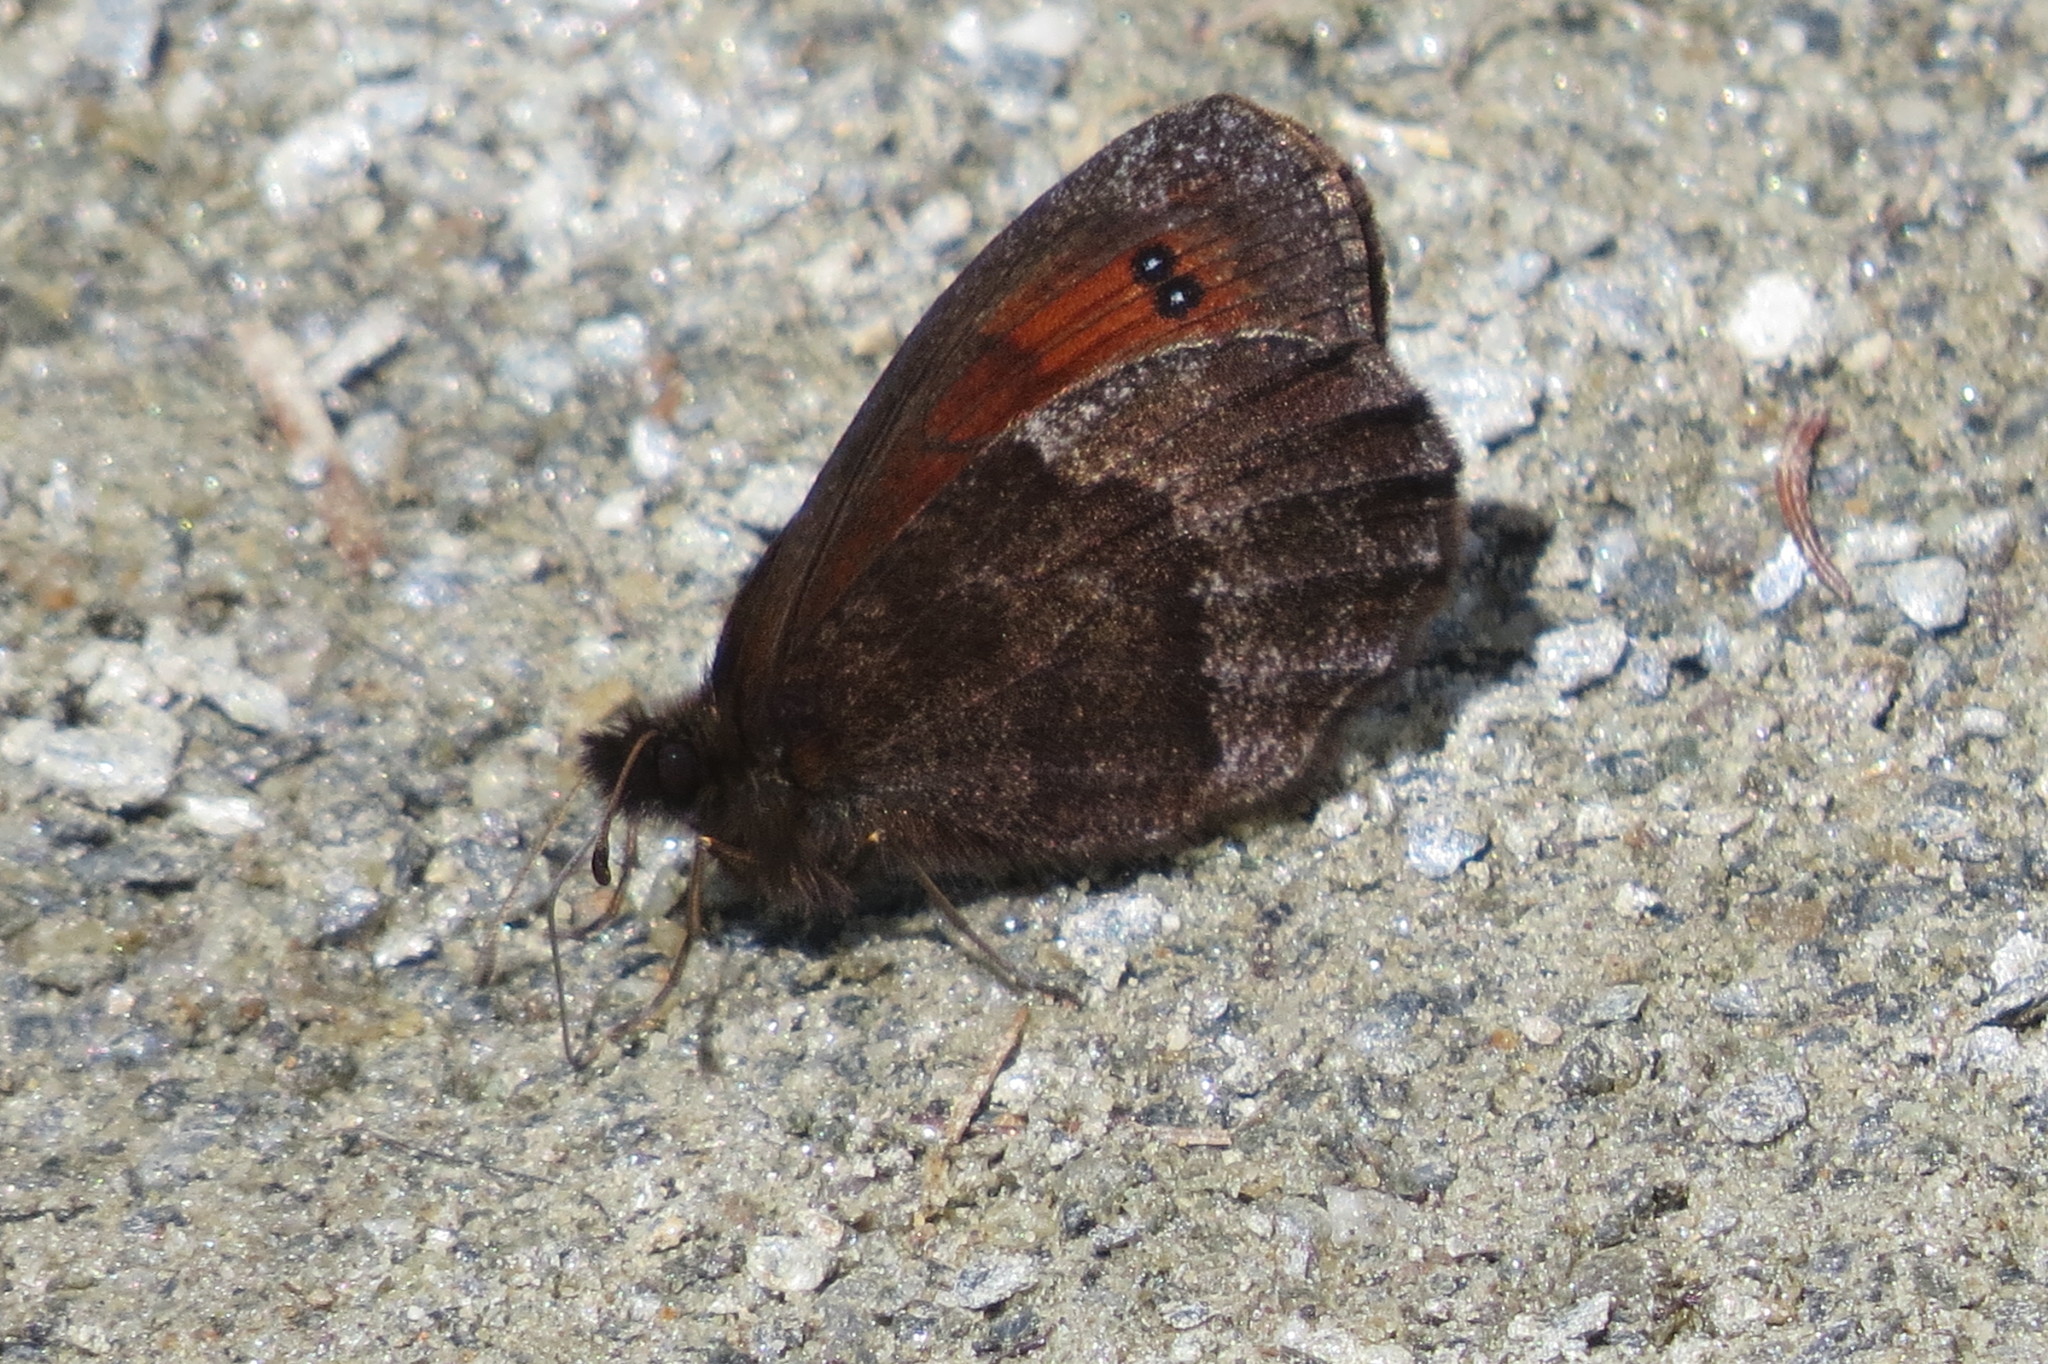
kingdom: Animalia
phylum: Arthropoda
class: Insecta
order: Lepidoptera
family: Nymphalidae
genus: Erebia
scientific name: Erebia pronoe
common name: Water ringlet
